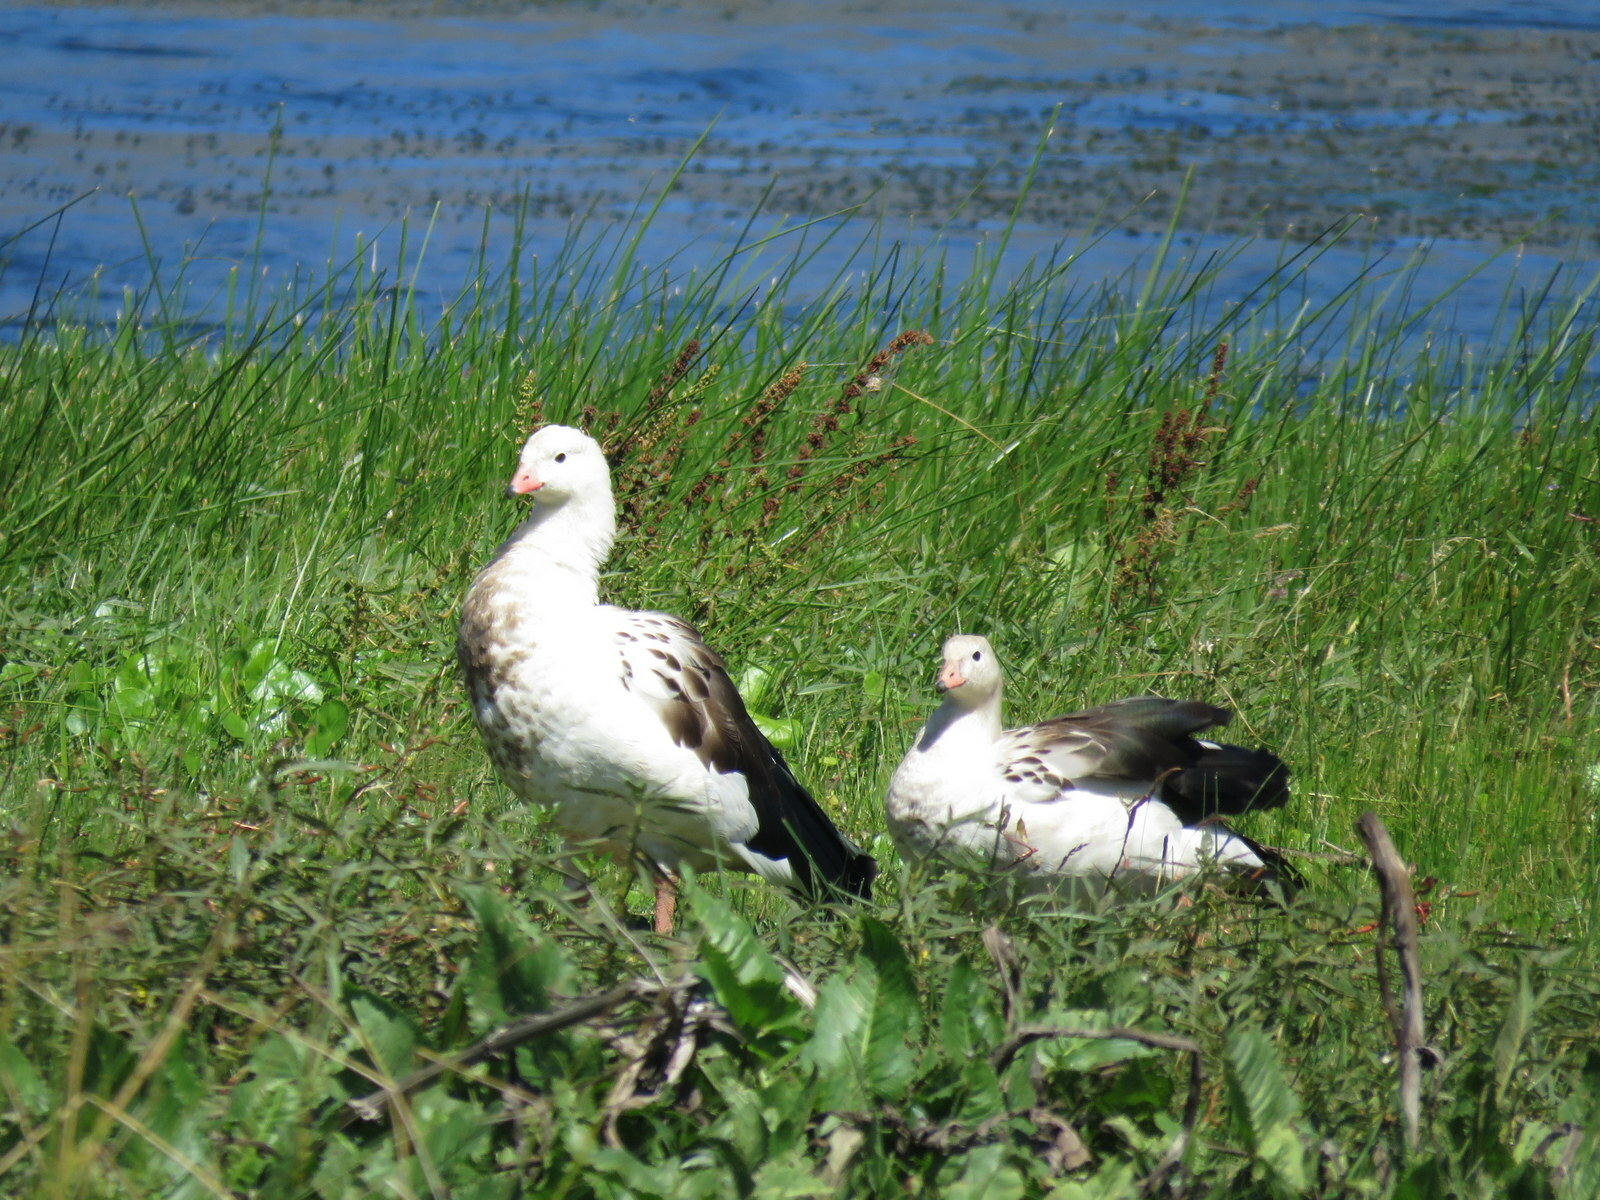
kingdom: Animalia
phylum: Chordata
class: Aves
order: Anseriformes
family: Anatidae
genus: Chloephaga
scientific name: Chloephaga melanoptera
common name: Andean goose
